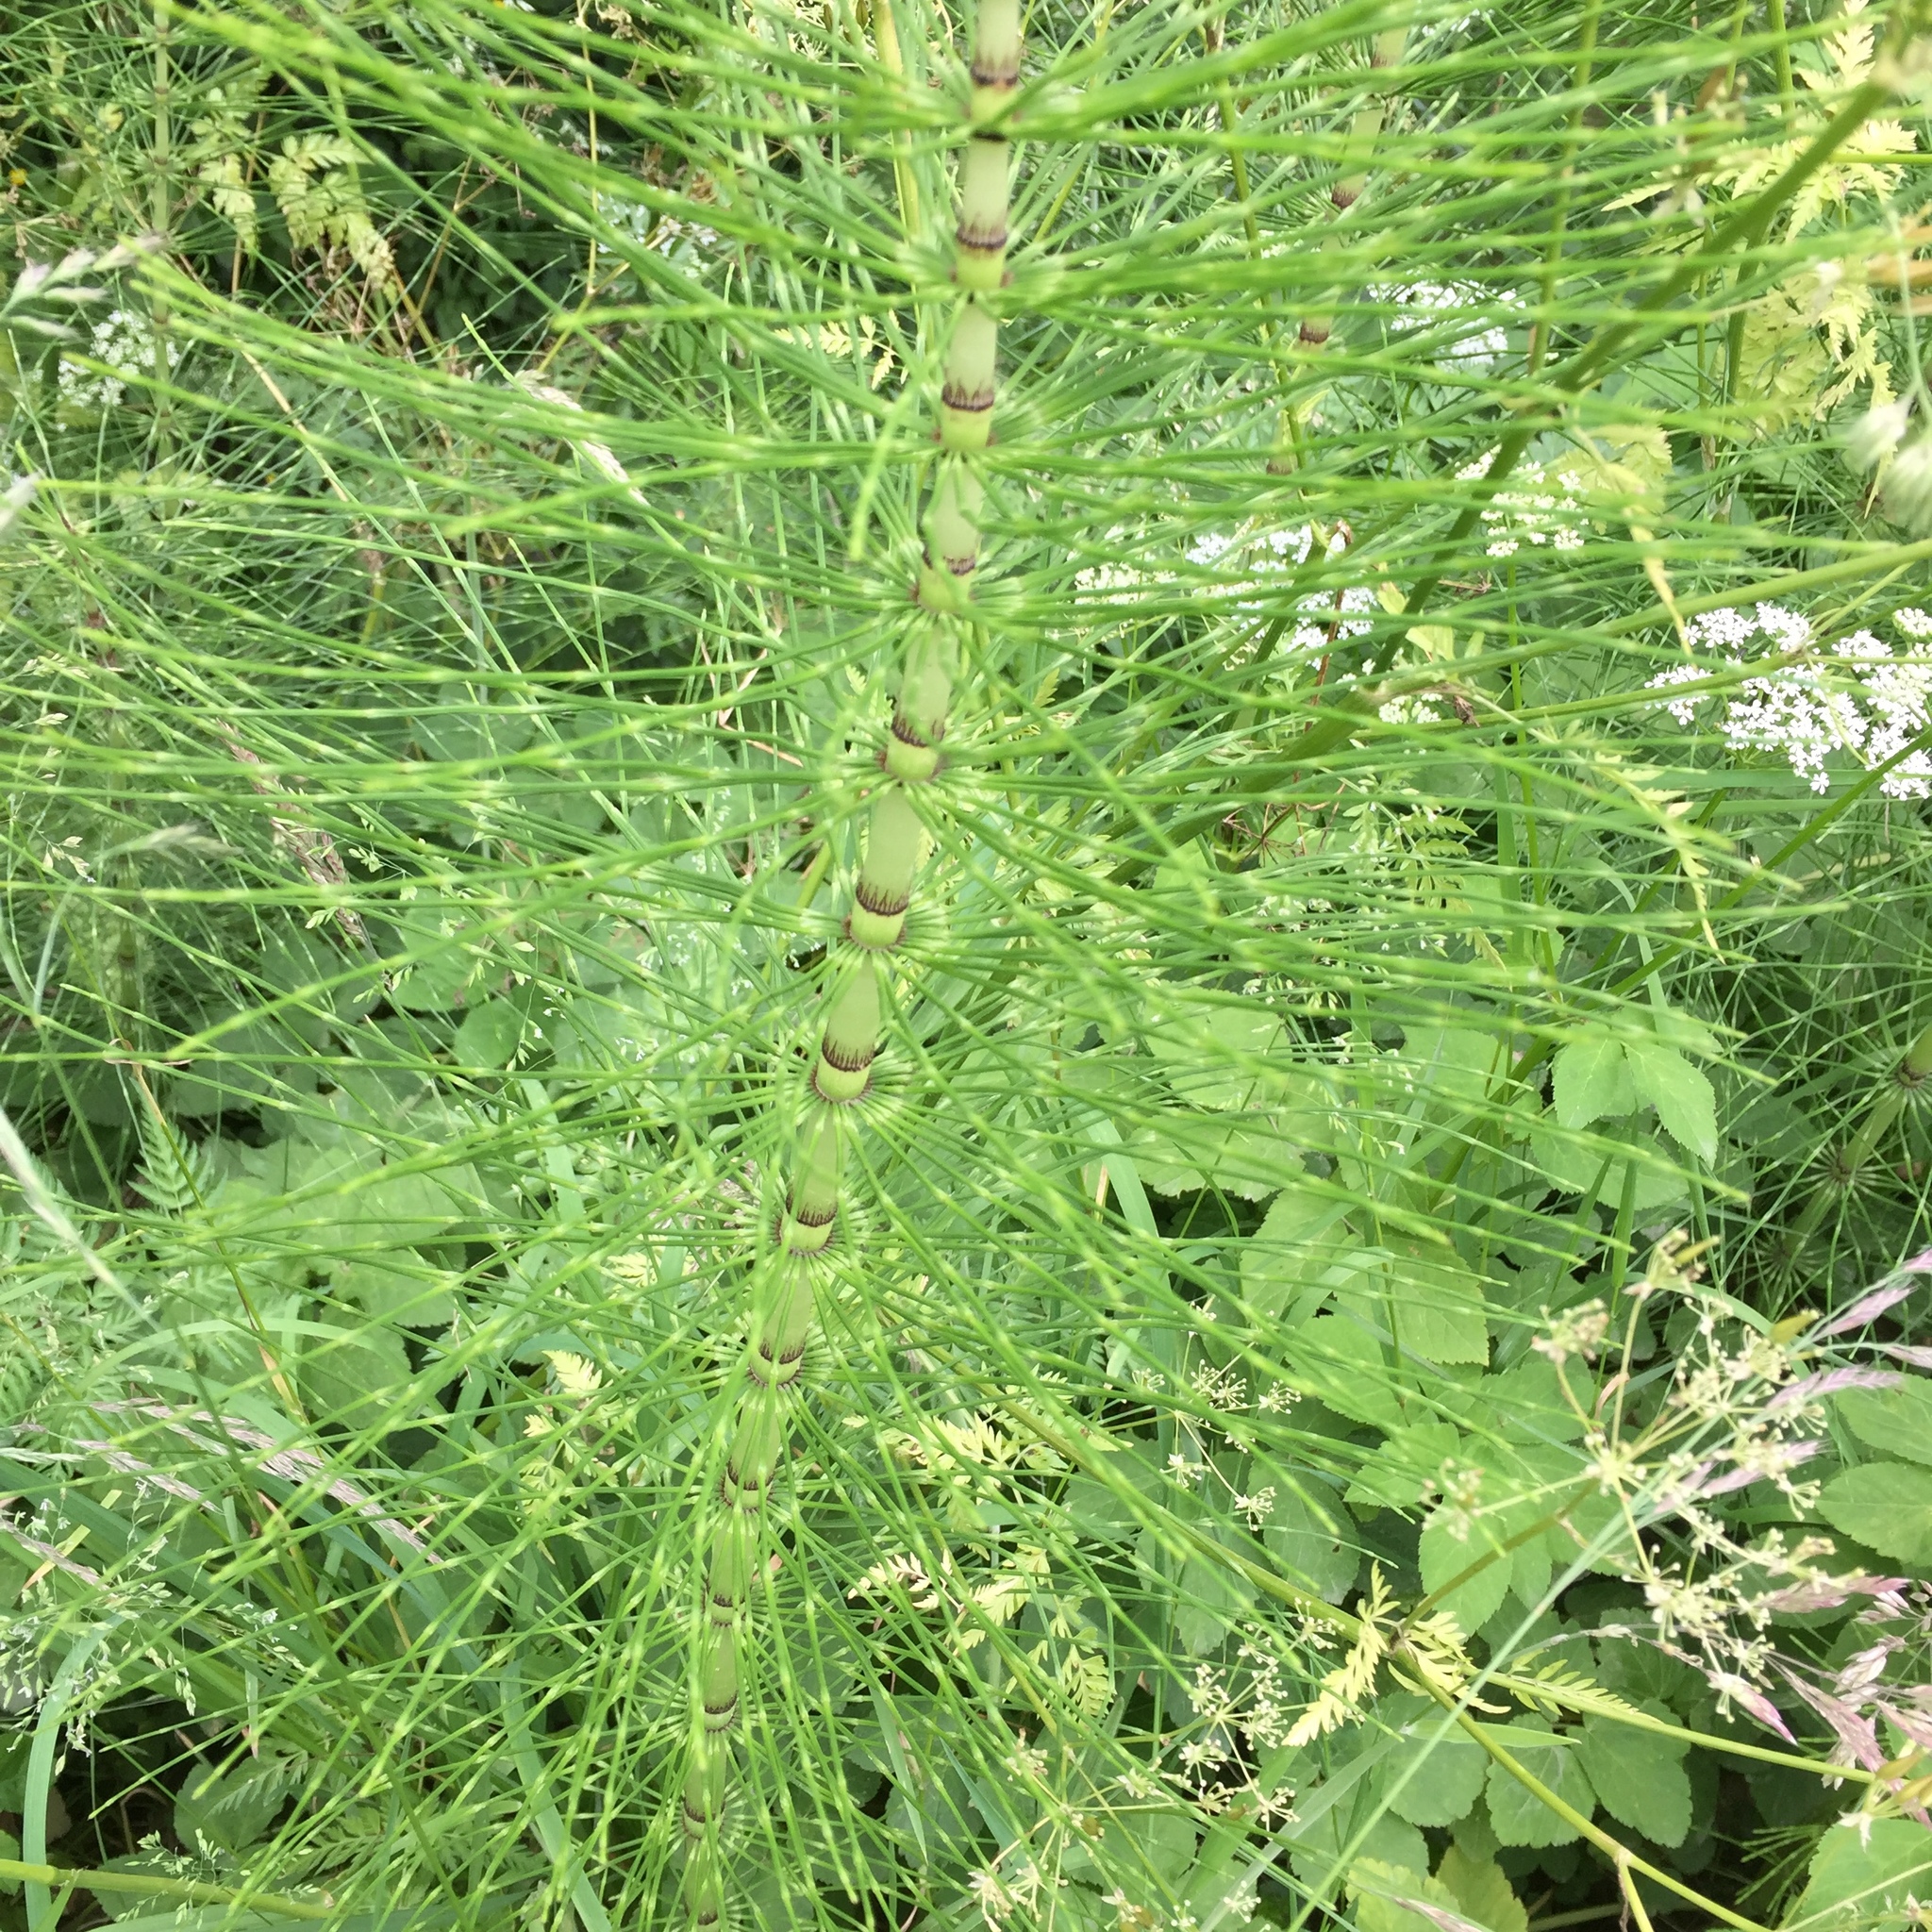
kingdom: Plantae
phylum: Tracheophyta
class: Polypodiopsida
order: Equisetales
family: Equisetaceae
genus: Equisetum
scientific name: Equisetum telmateia
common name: Great horsetail
